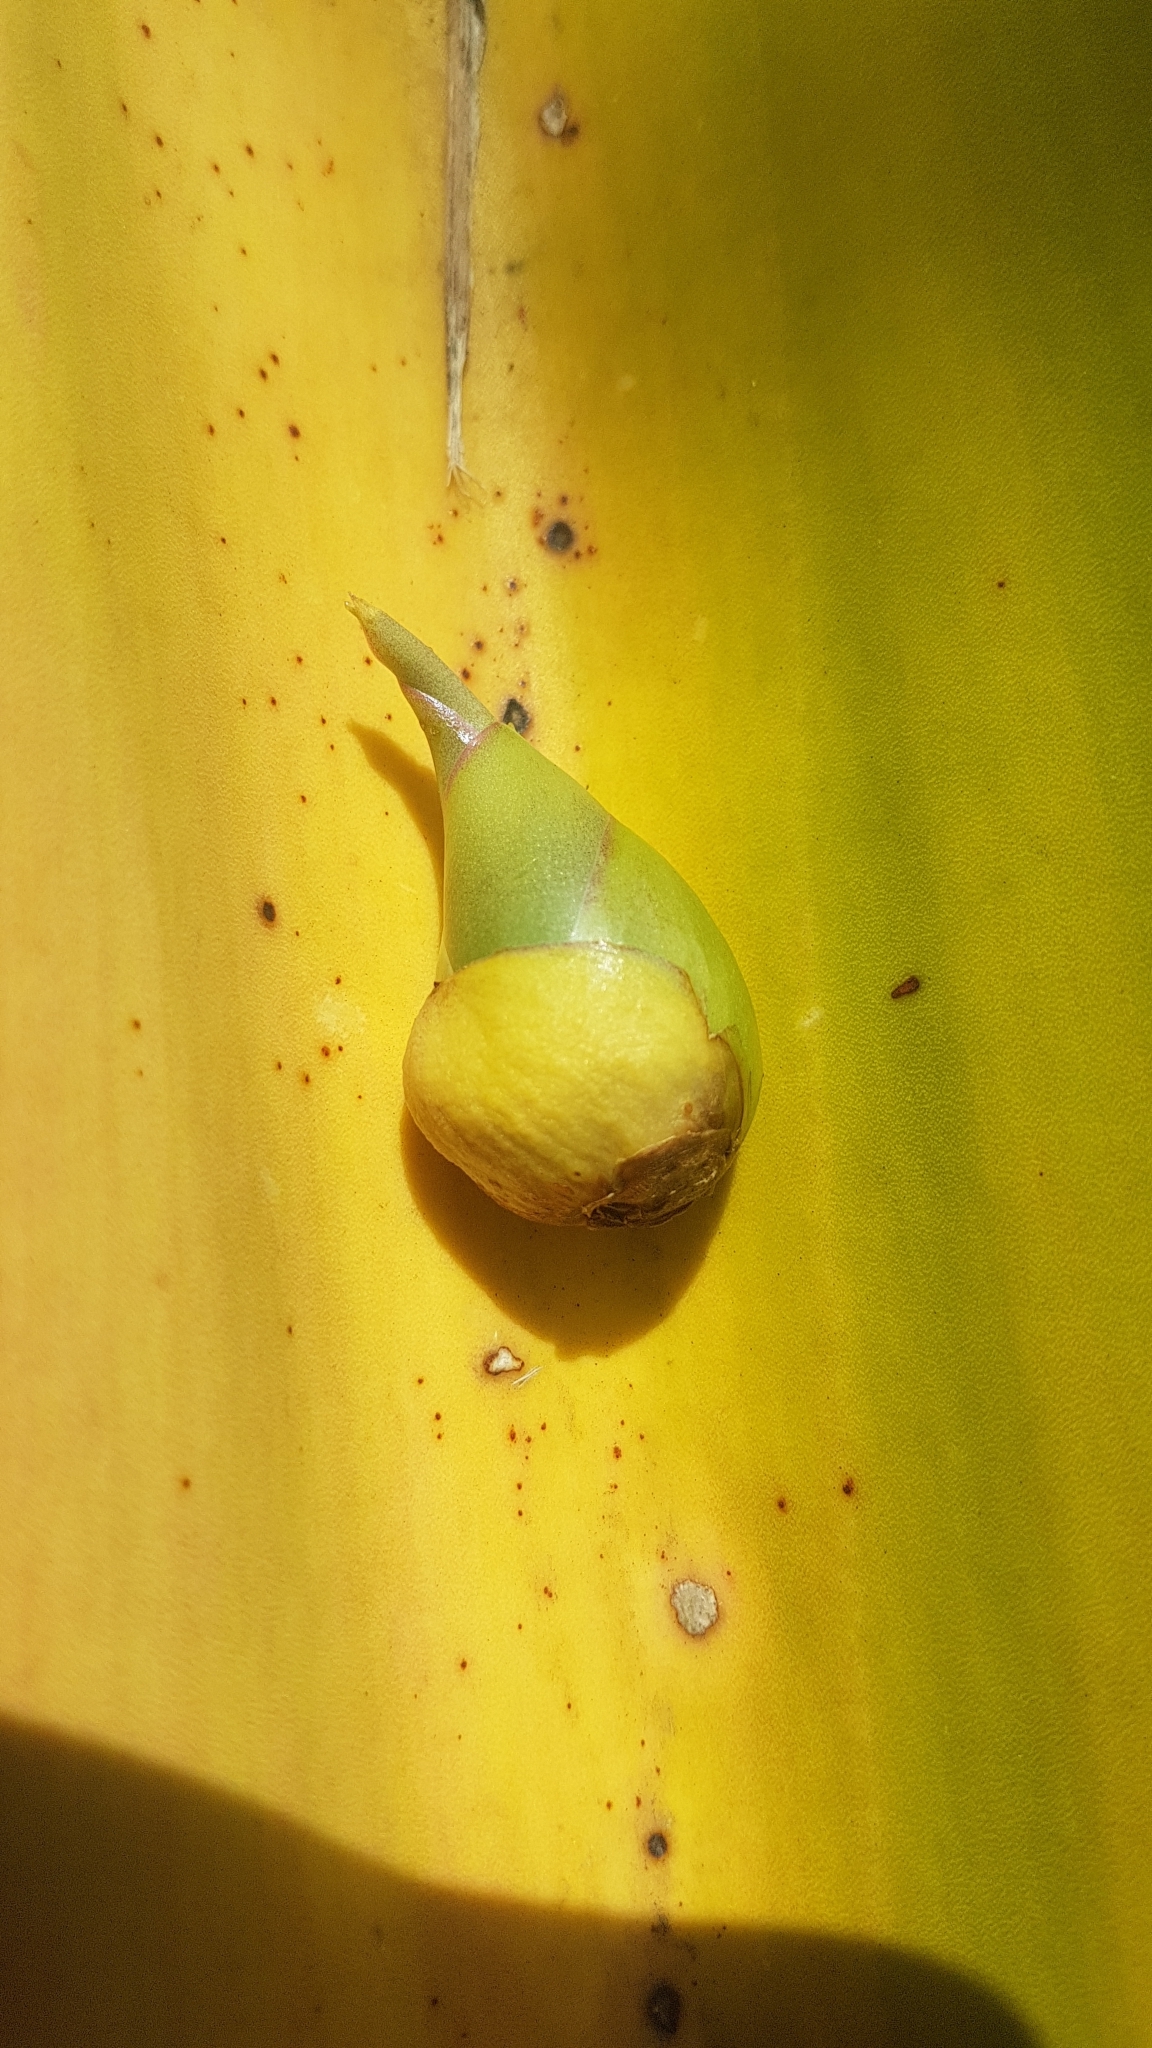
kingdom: Plantae
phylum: Tracheophyta
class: Liliopsida
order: Asparagales
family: Asparagaceae
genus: Furcraea
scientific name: Furcraea foetida
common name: Mauritius hemp
